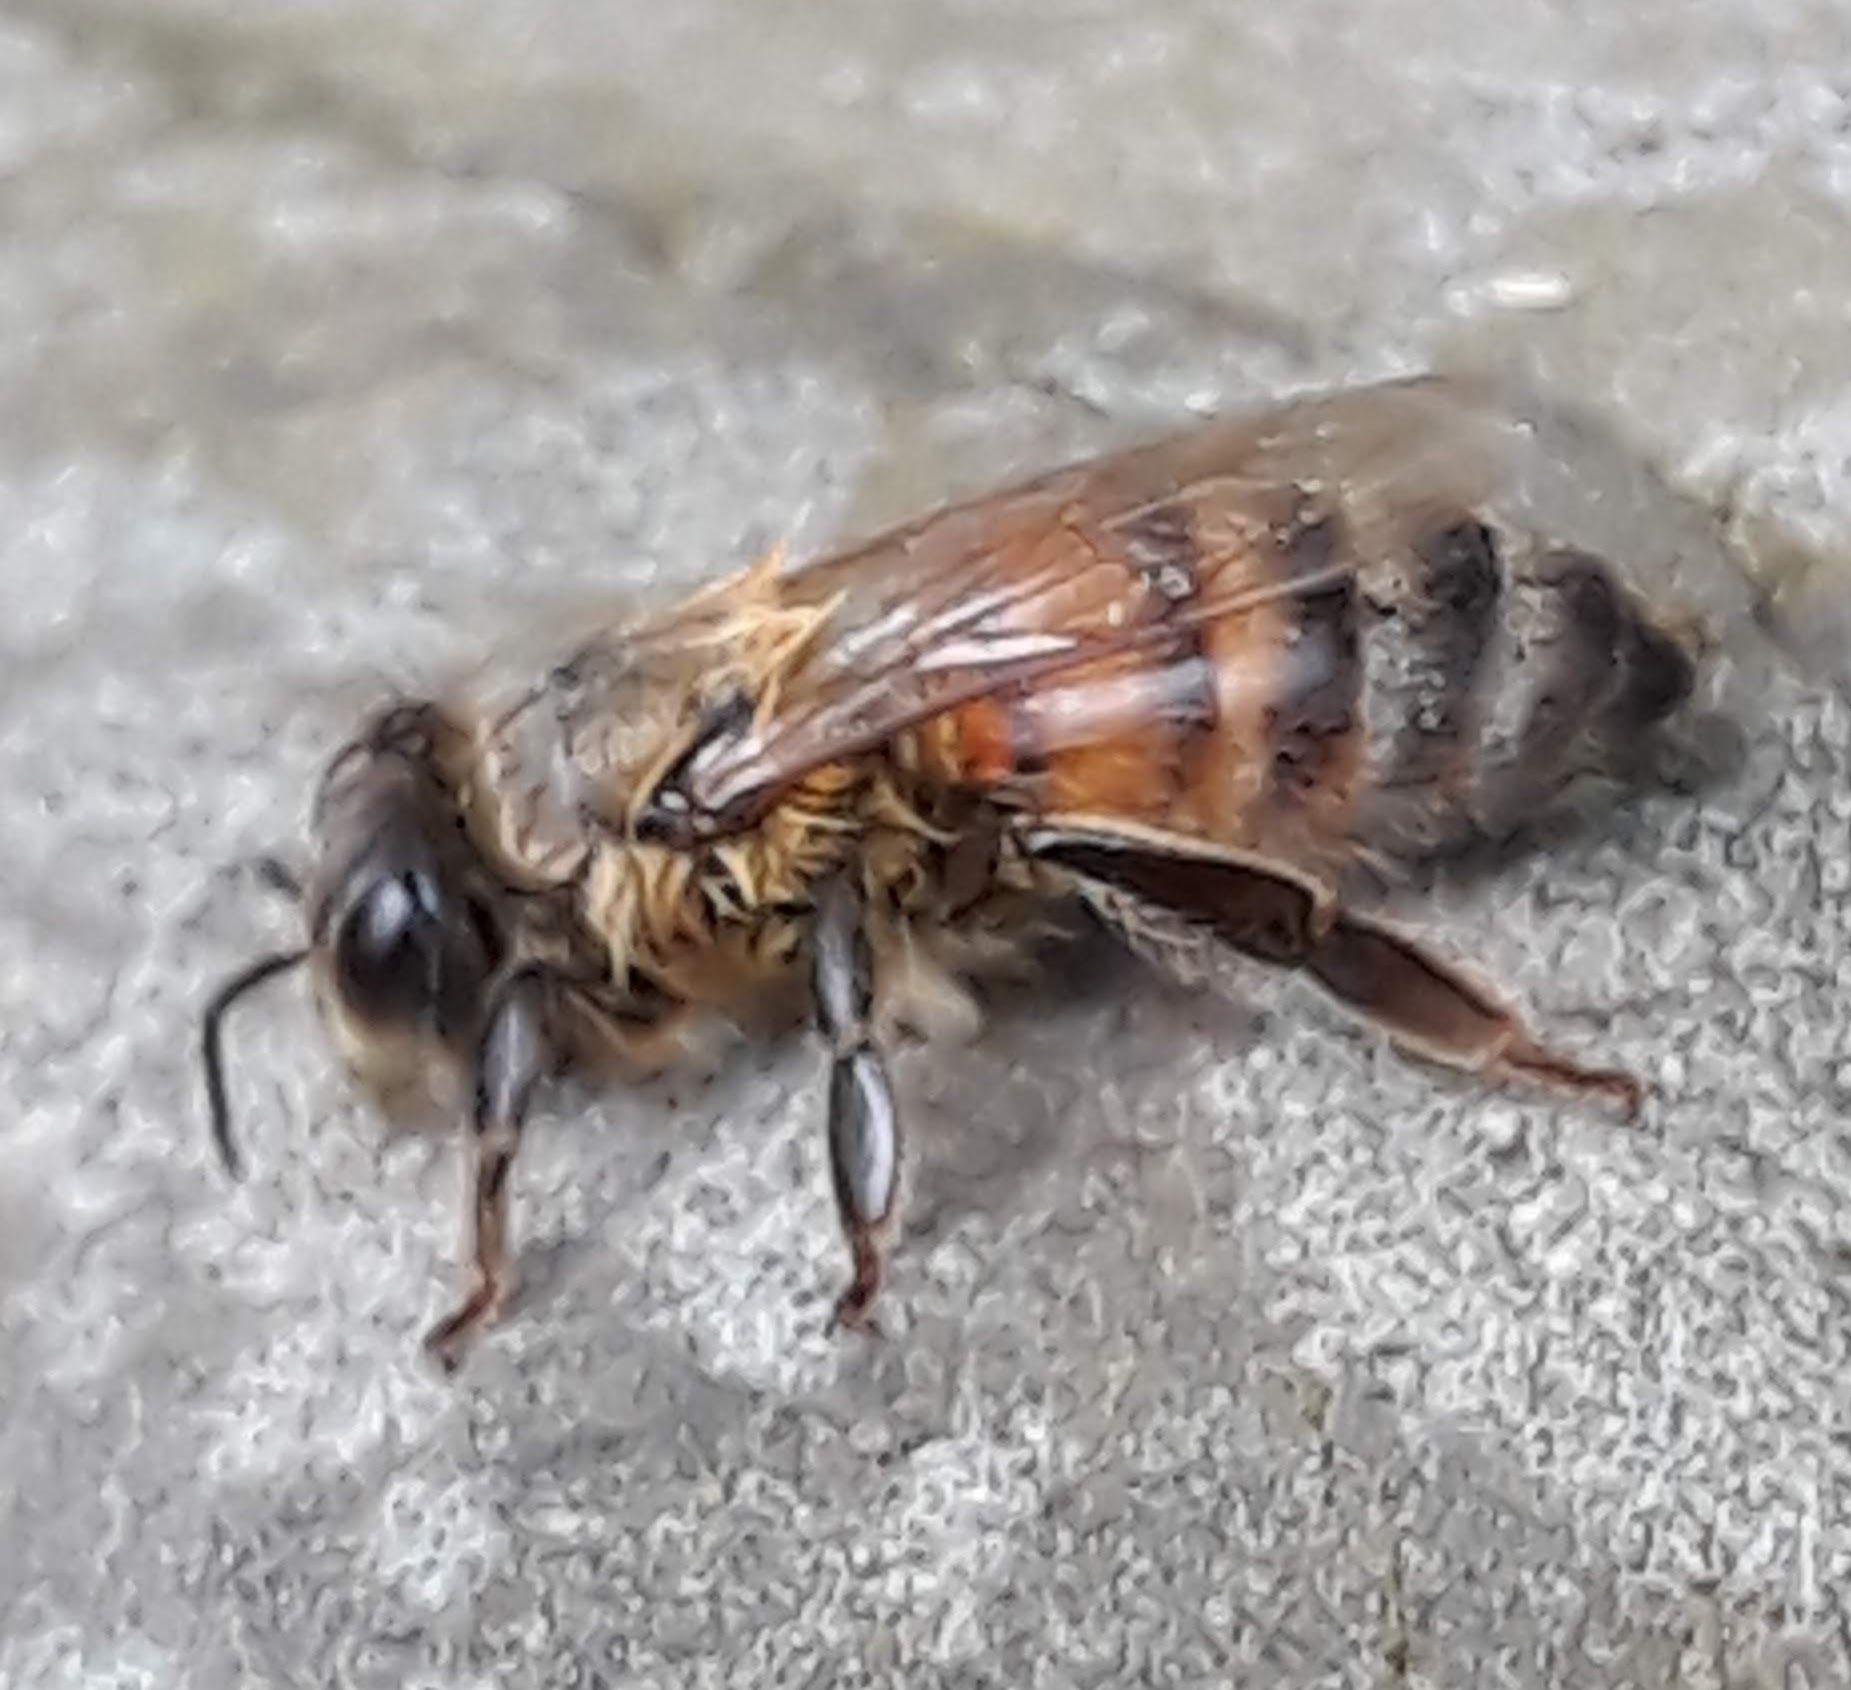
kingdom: Animalia
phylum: Arthropoda
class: Insecta
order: Hymenoptera
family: Apidae
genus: Apis
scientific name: Apis mellifera
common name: Honey bee
